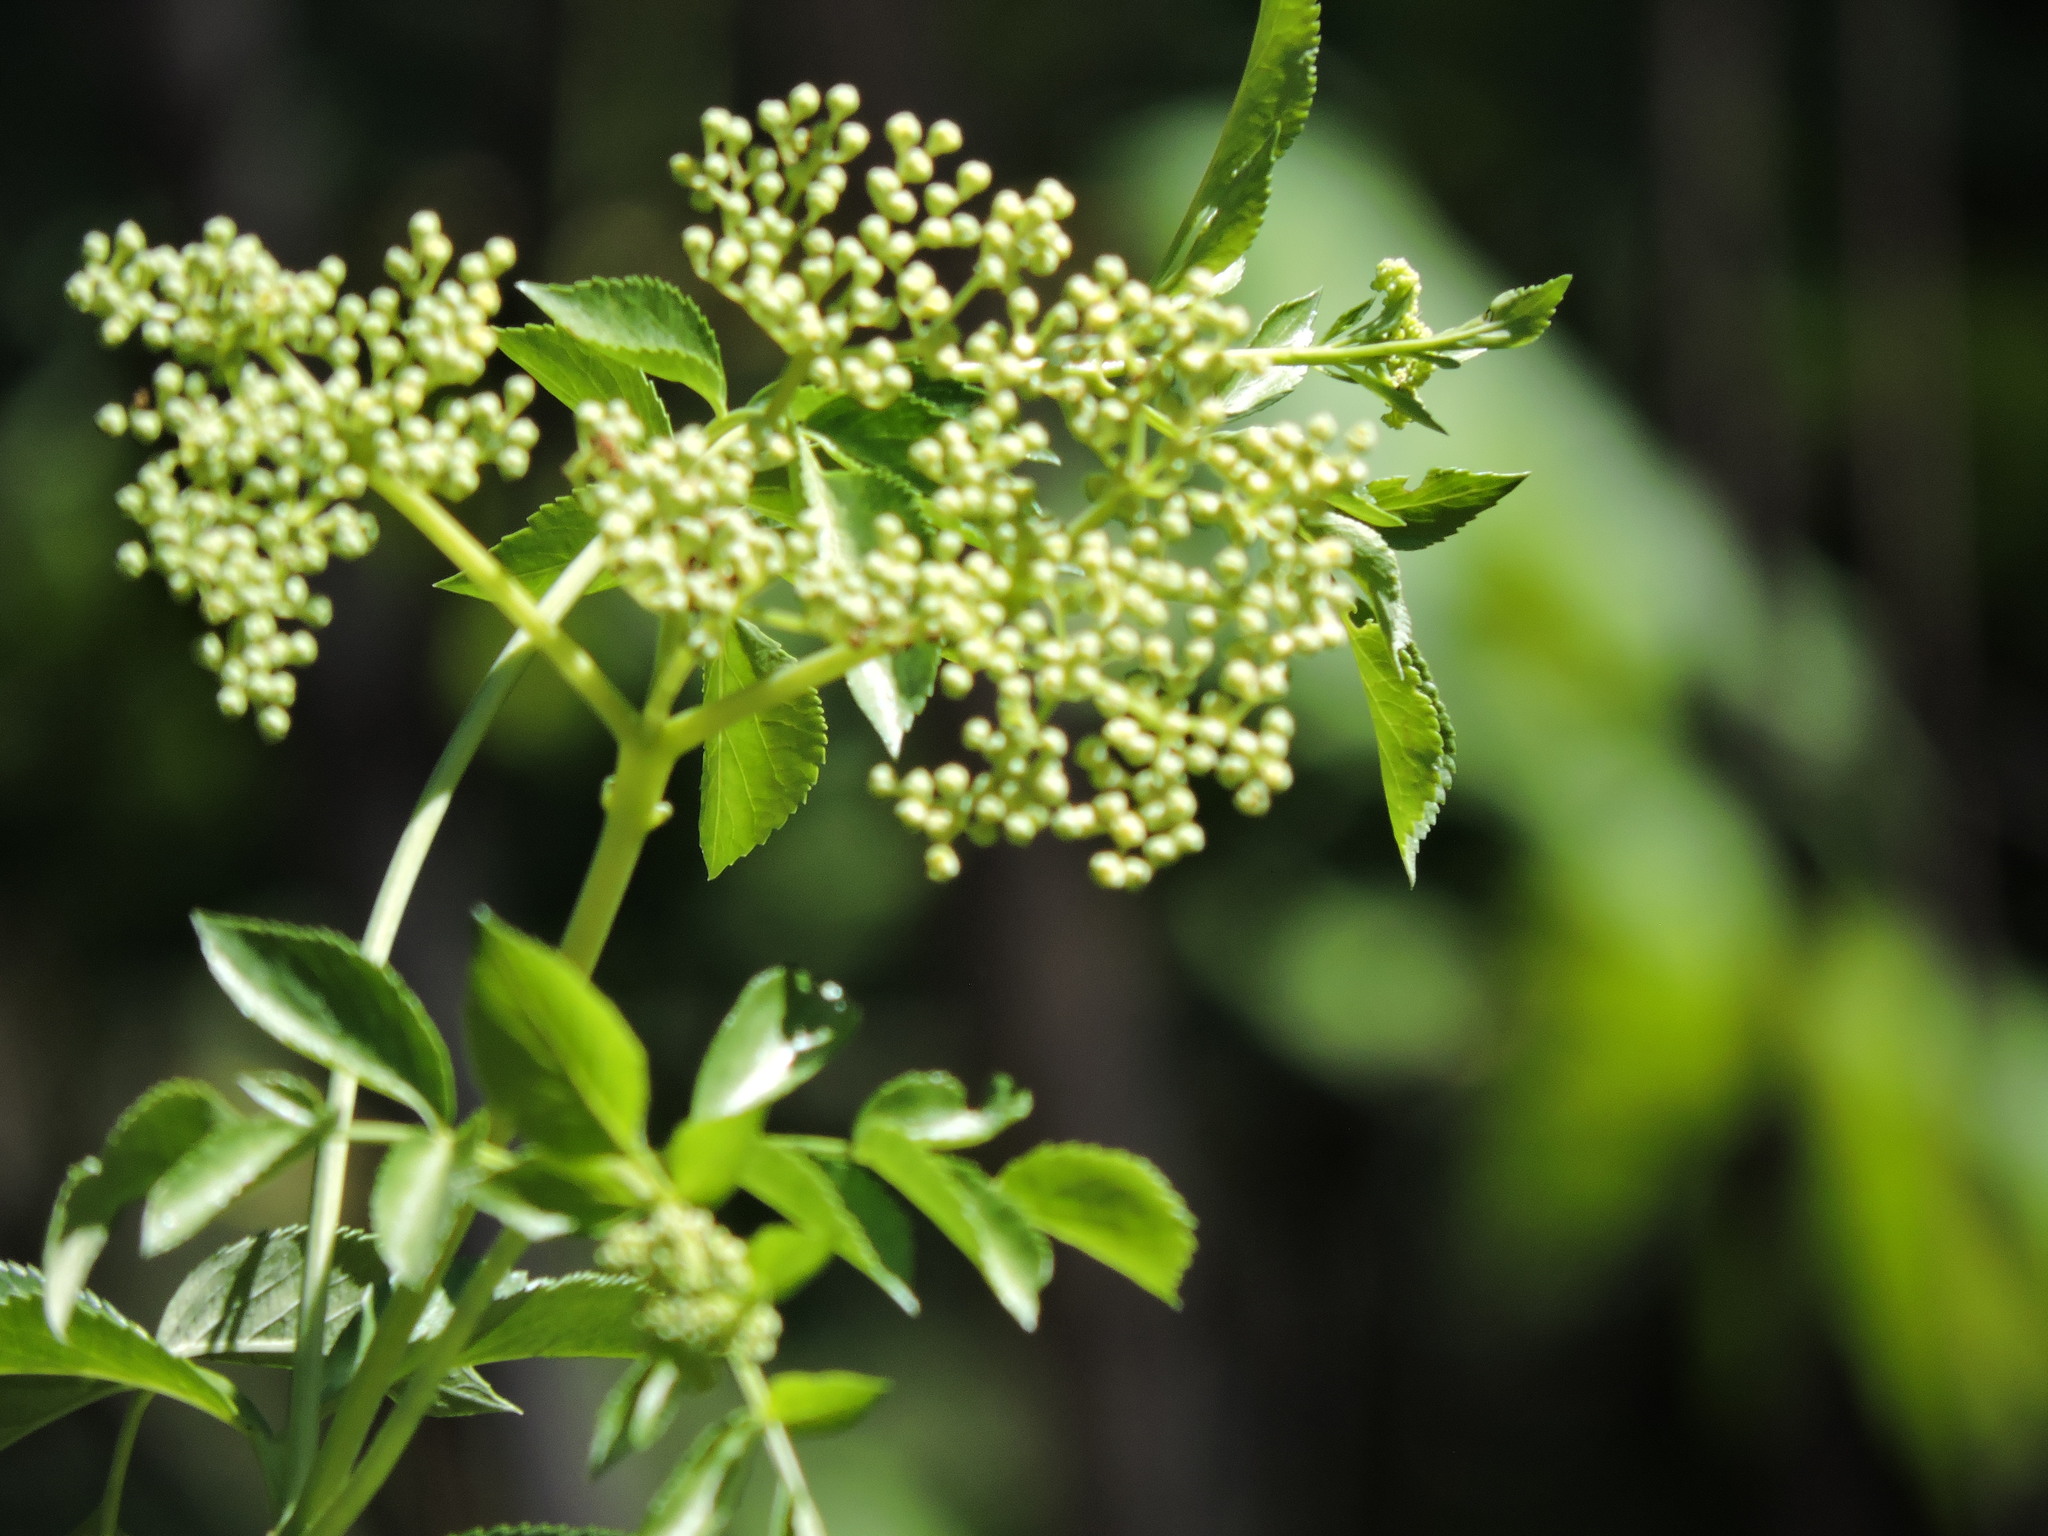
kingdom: Plantae
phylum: Tracheophyta
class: Magnoliopsida
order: Dipsacales
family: Viburnaceae
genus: Sambucus
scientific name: Sambucus cerulea
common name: Blue elder
